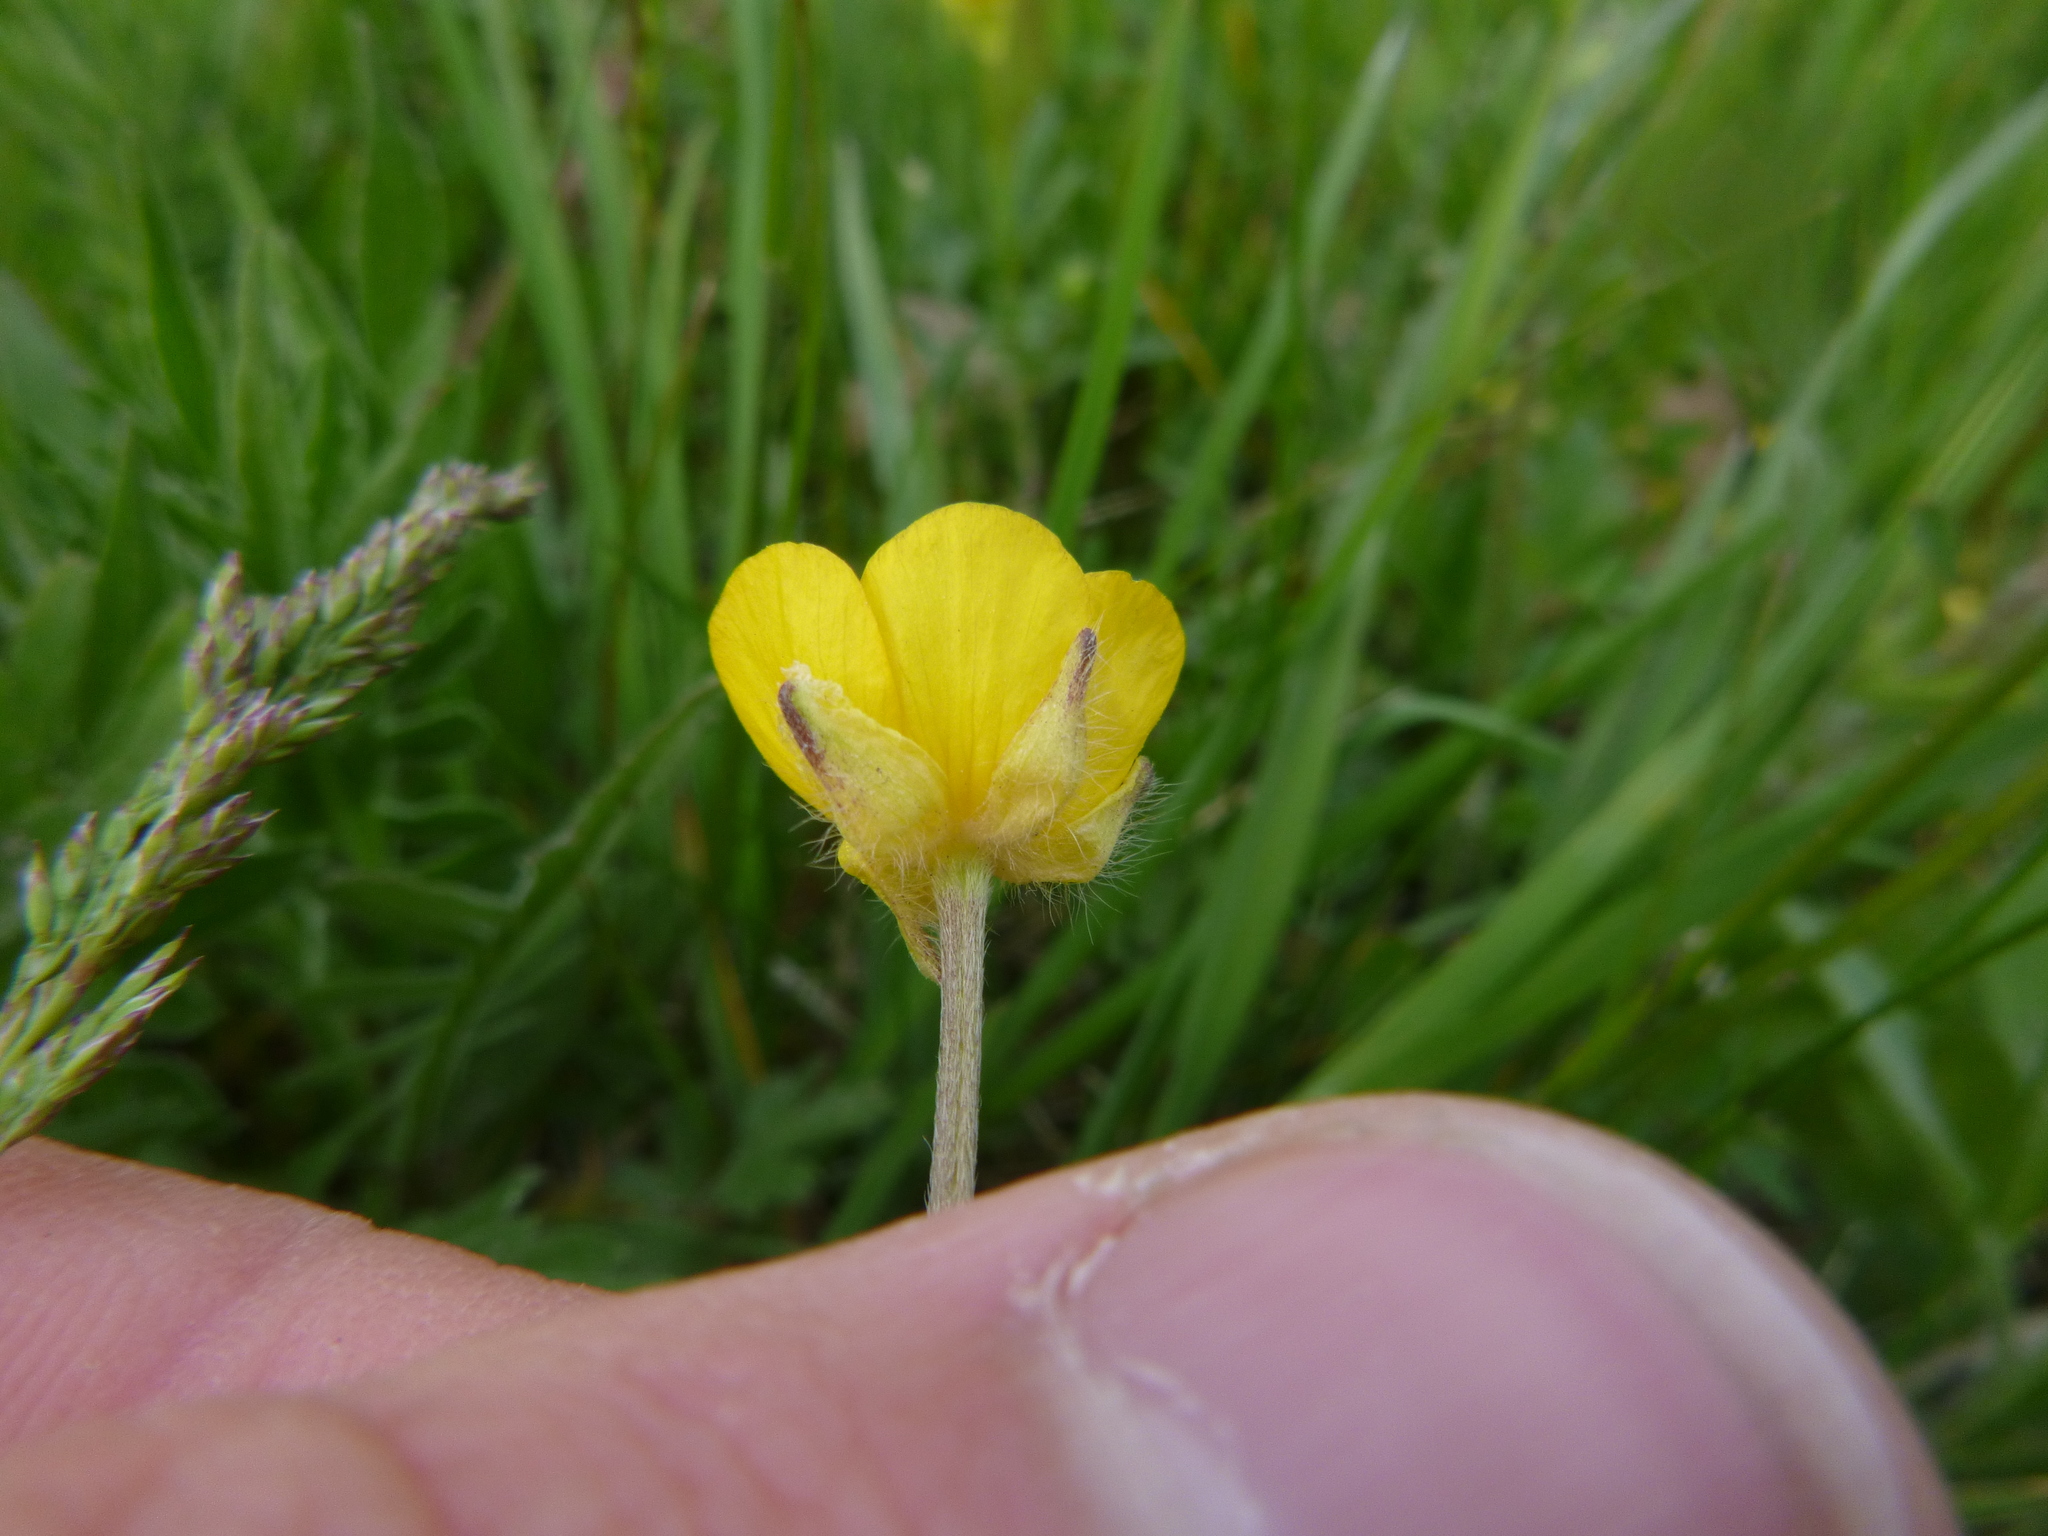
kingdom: Plantae
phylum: Tracheophyta
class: Magnoliopsida
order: Ranunculales
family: Ranunculaceae
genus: Ranunculus
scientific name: Ranunculus bulbosus
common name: Bulbous buttercup
